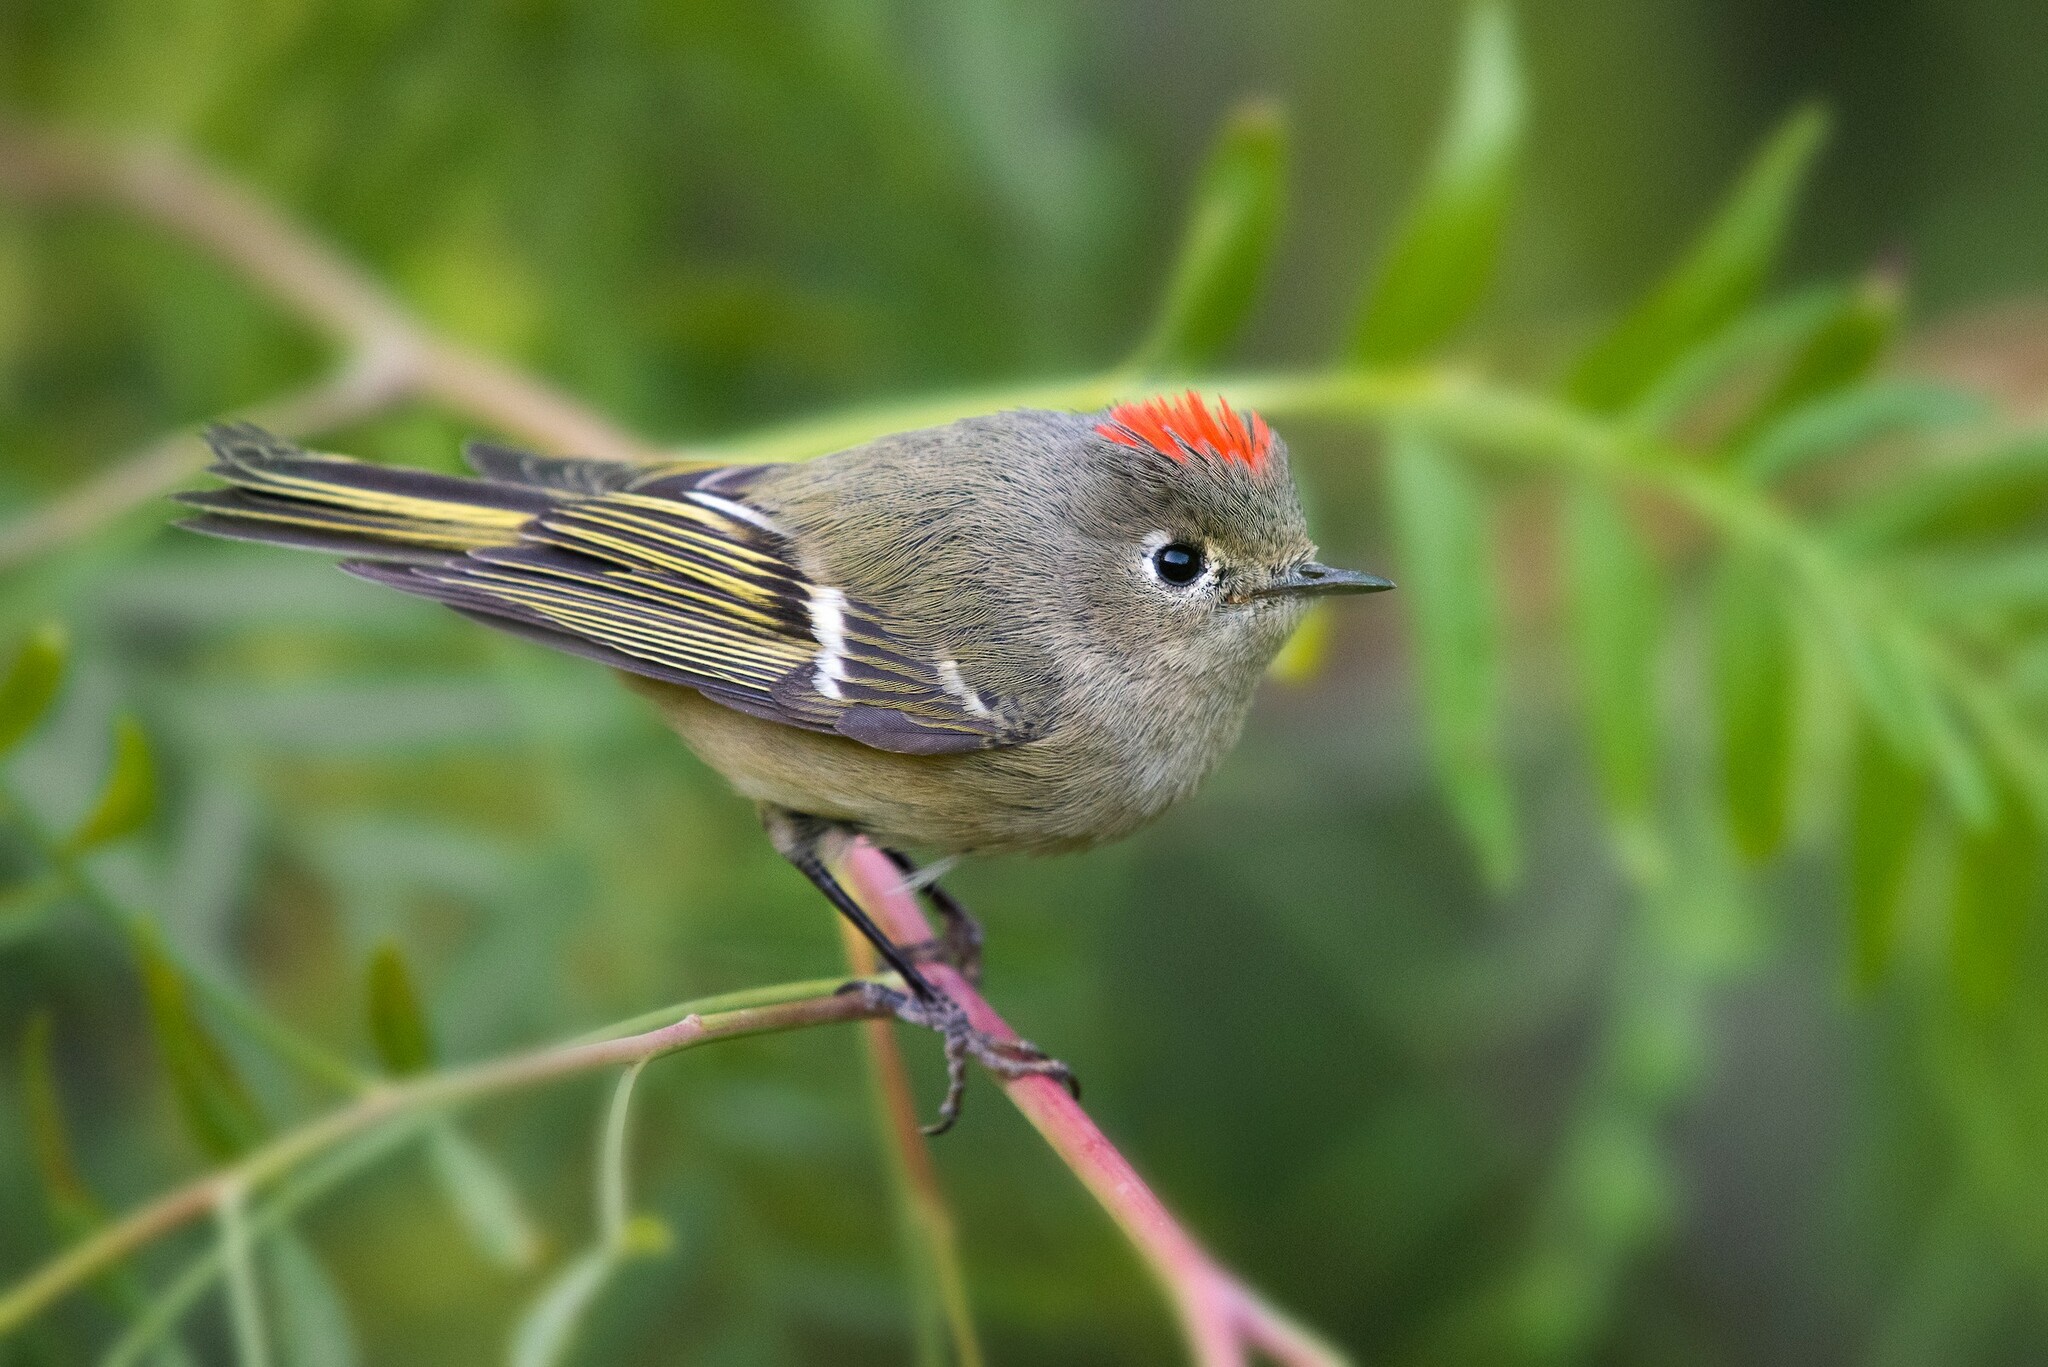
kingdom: Animalia
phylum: Chordata
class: Aves
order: Passeriformes
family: Regulidae
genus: Regulus
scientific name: Regulus calendula
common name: Ruby-crowned kinglet
